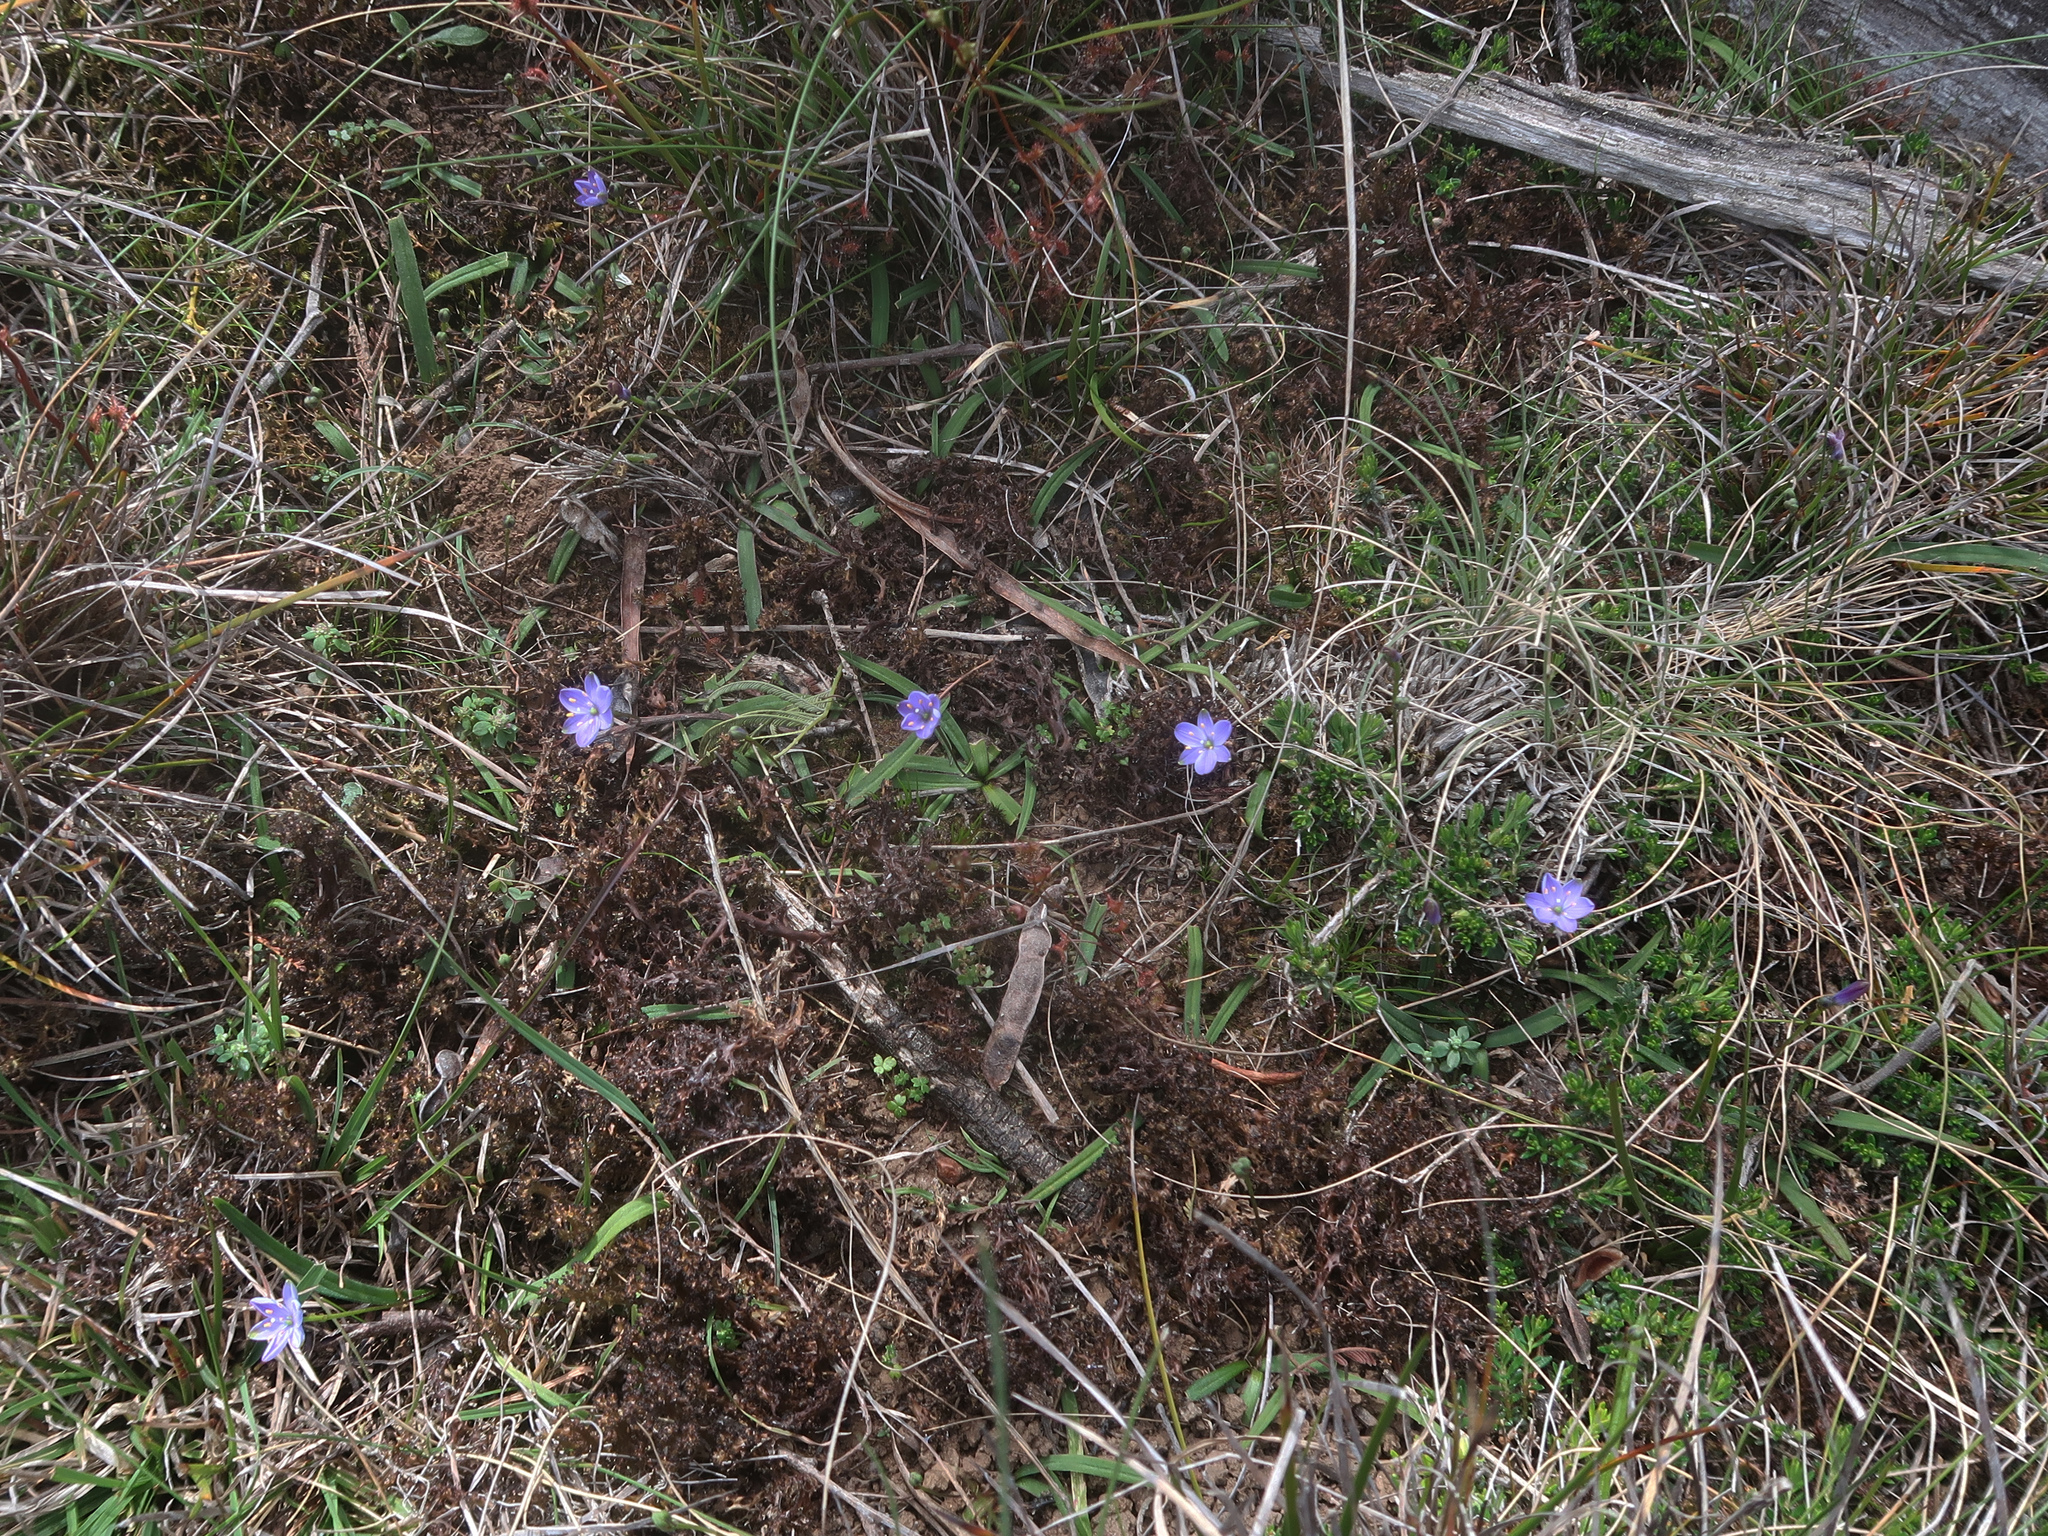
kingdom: Plantae
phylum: Tracheophyta
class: Liliopsida
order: Asparagales
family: Asphodelaceae
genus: Chamaescilla
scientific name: Chamaescilla corymbosa
